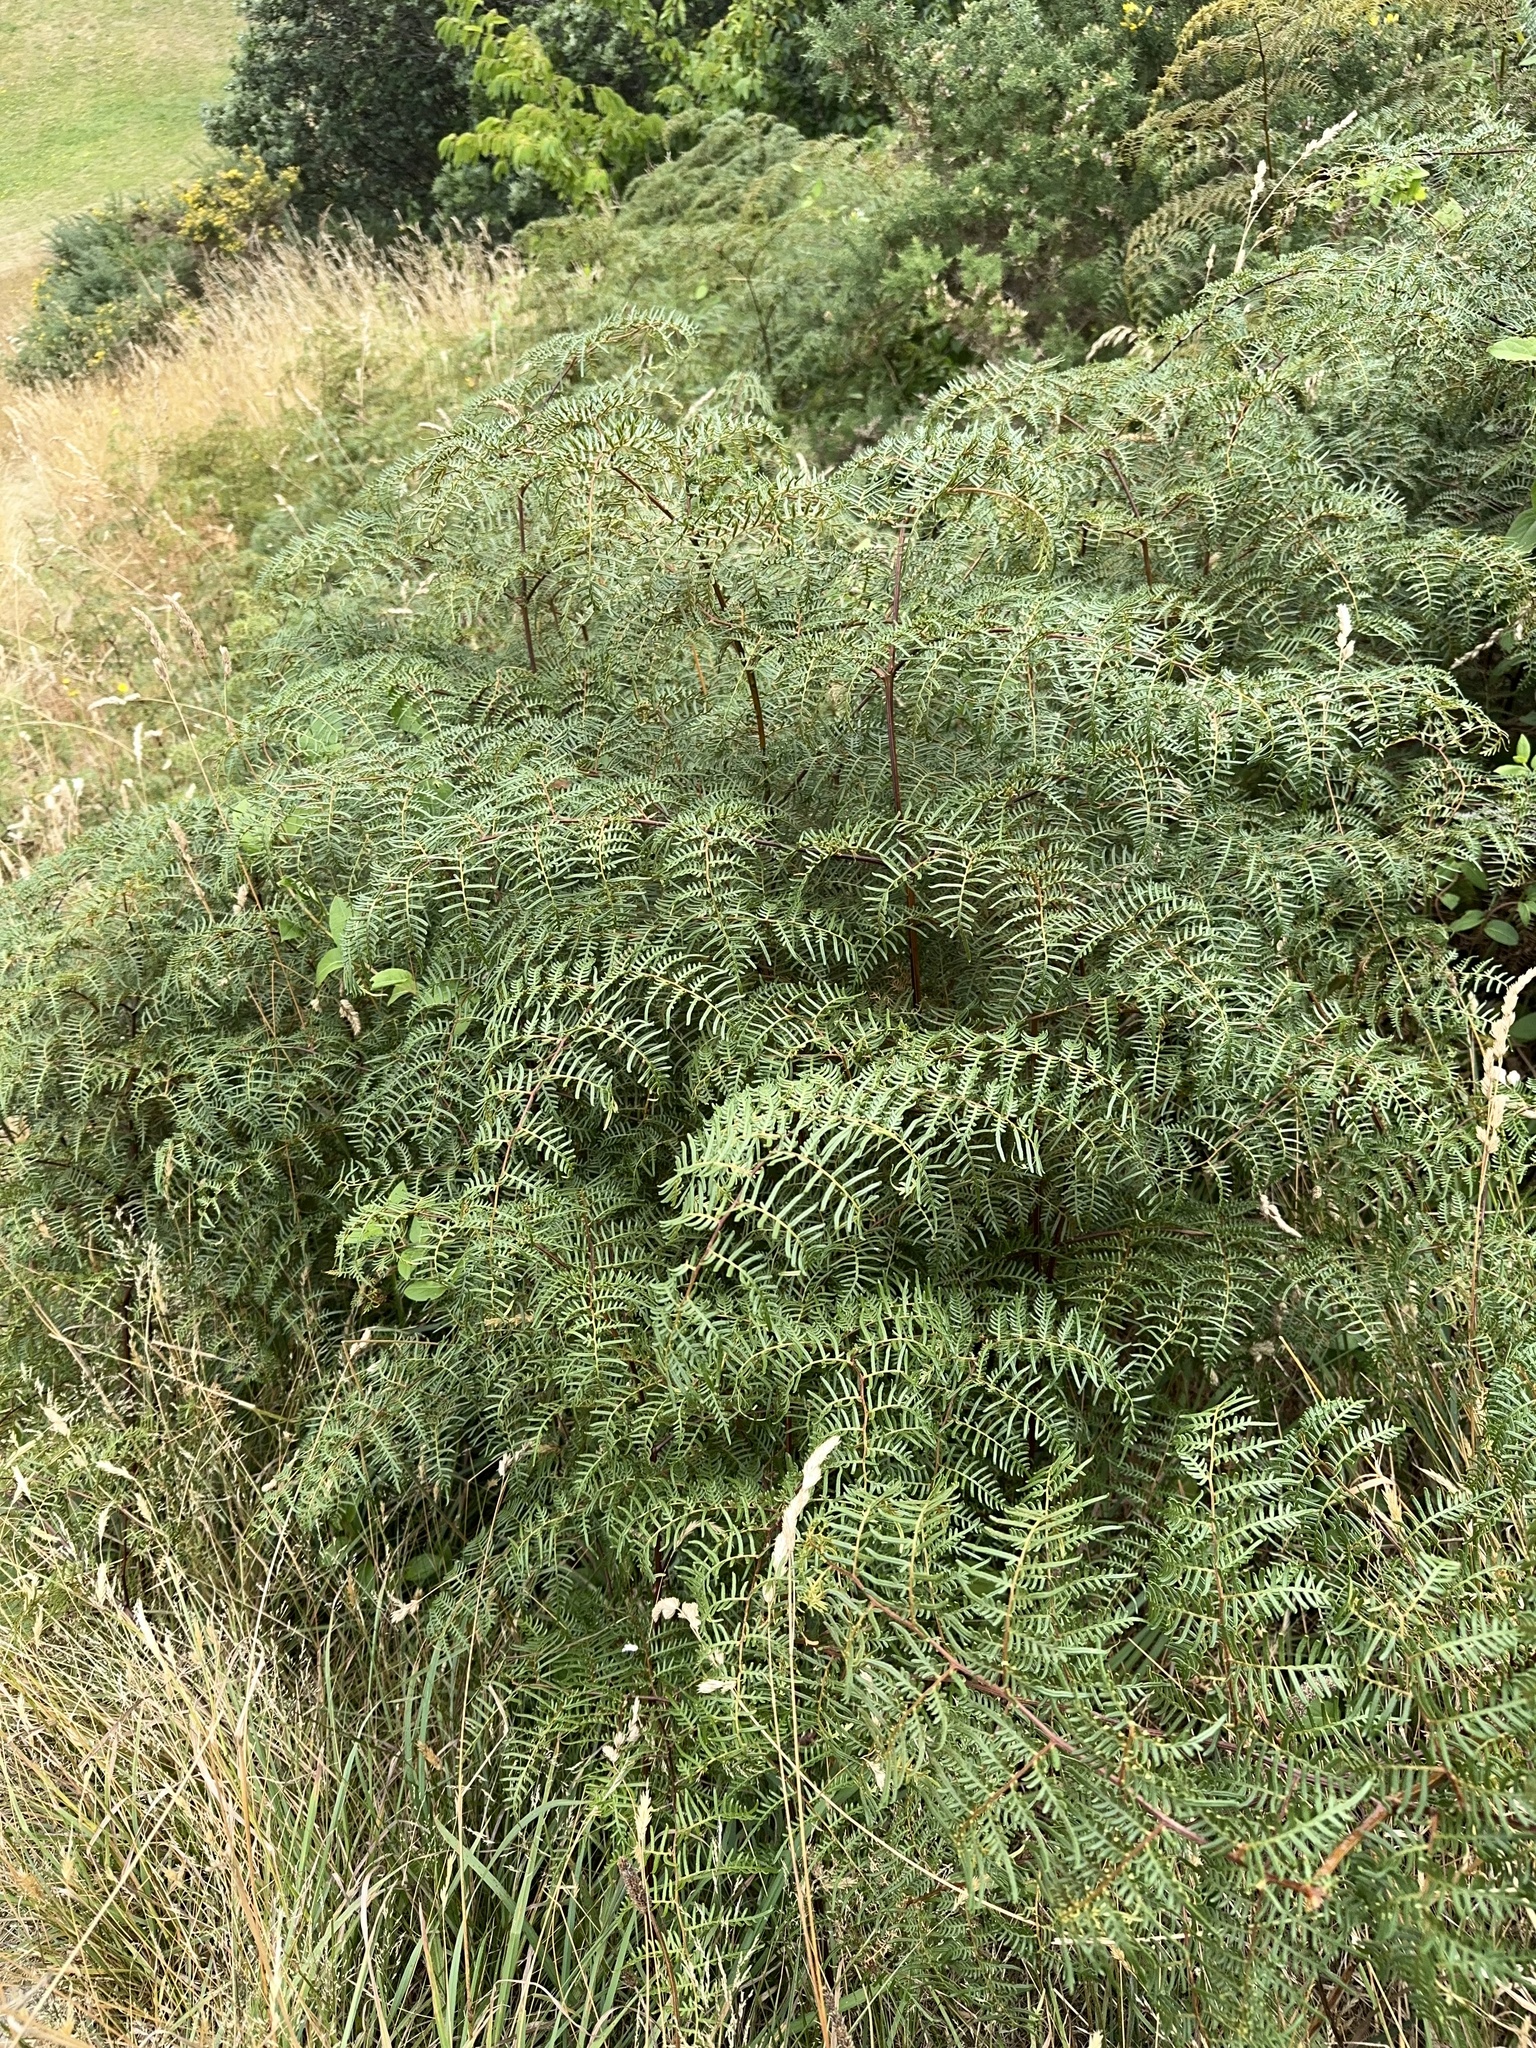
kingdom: Plantae
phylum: Tracheophyta
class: Polypodiopsida
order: Polypodiales
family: Dennstaedtiaceae
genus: Pteridium
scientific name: Pteridium esculentum
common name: Bracken fern
